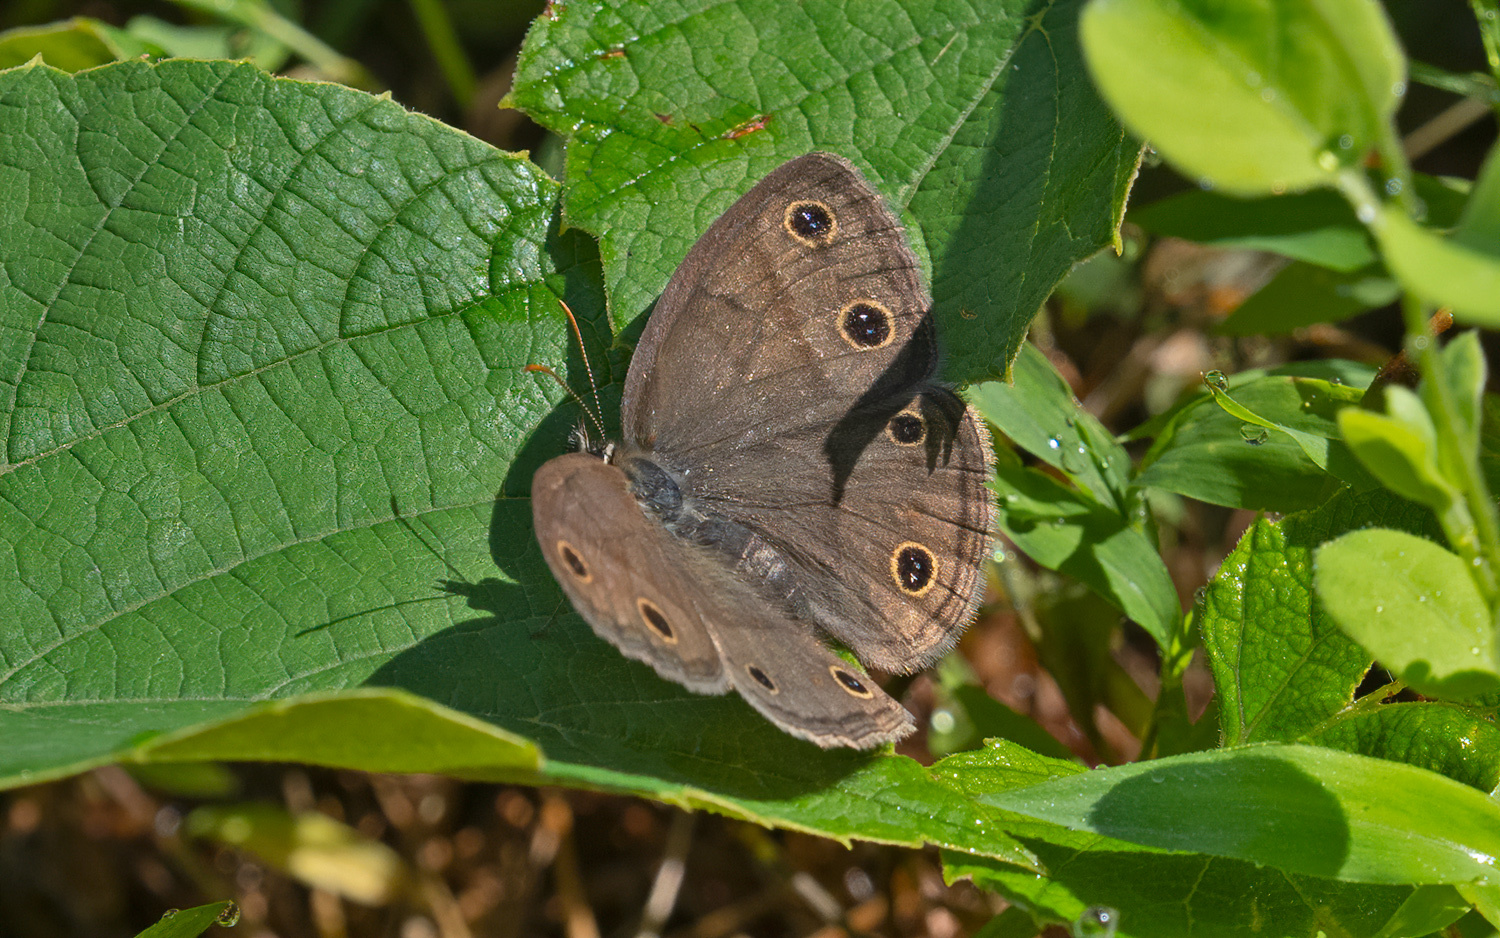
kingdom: Animalia
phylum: Arthropoda
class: Insecta
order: Lepidoptera
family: Nymphalidae
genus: Euptychia
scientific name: Euptychia cymela
